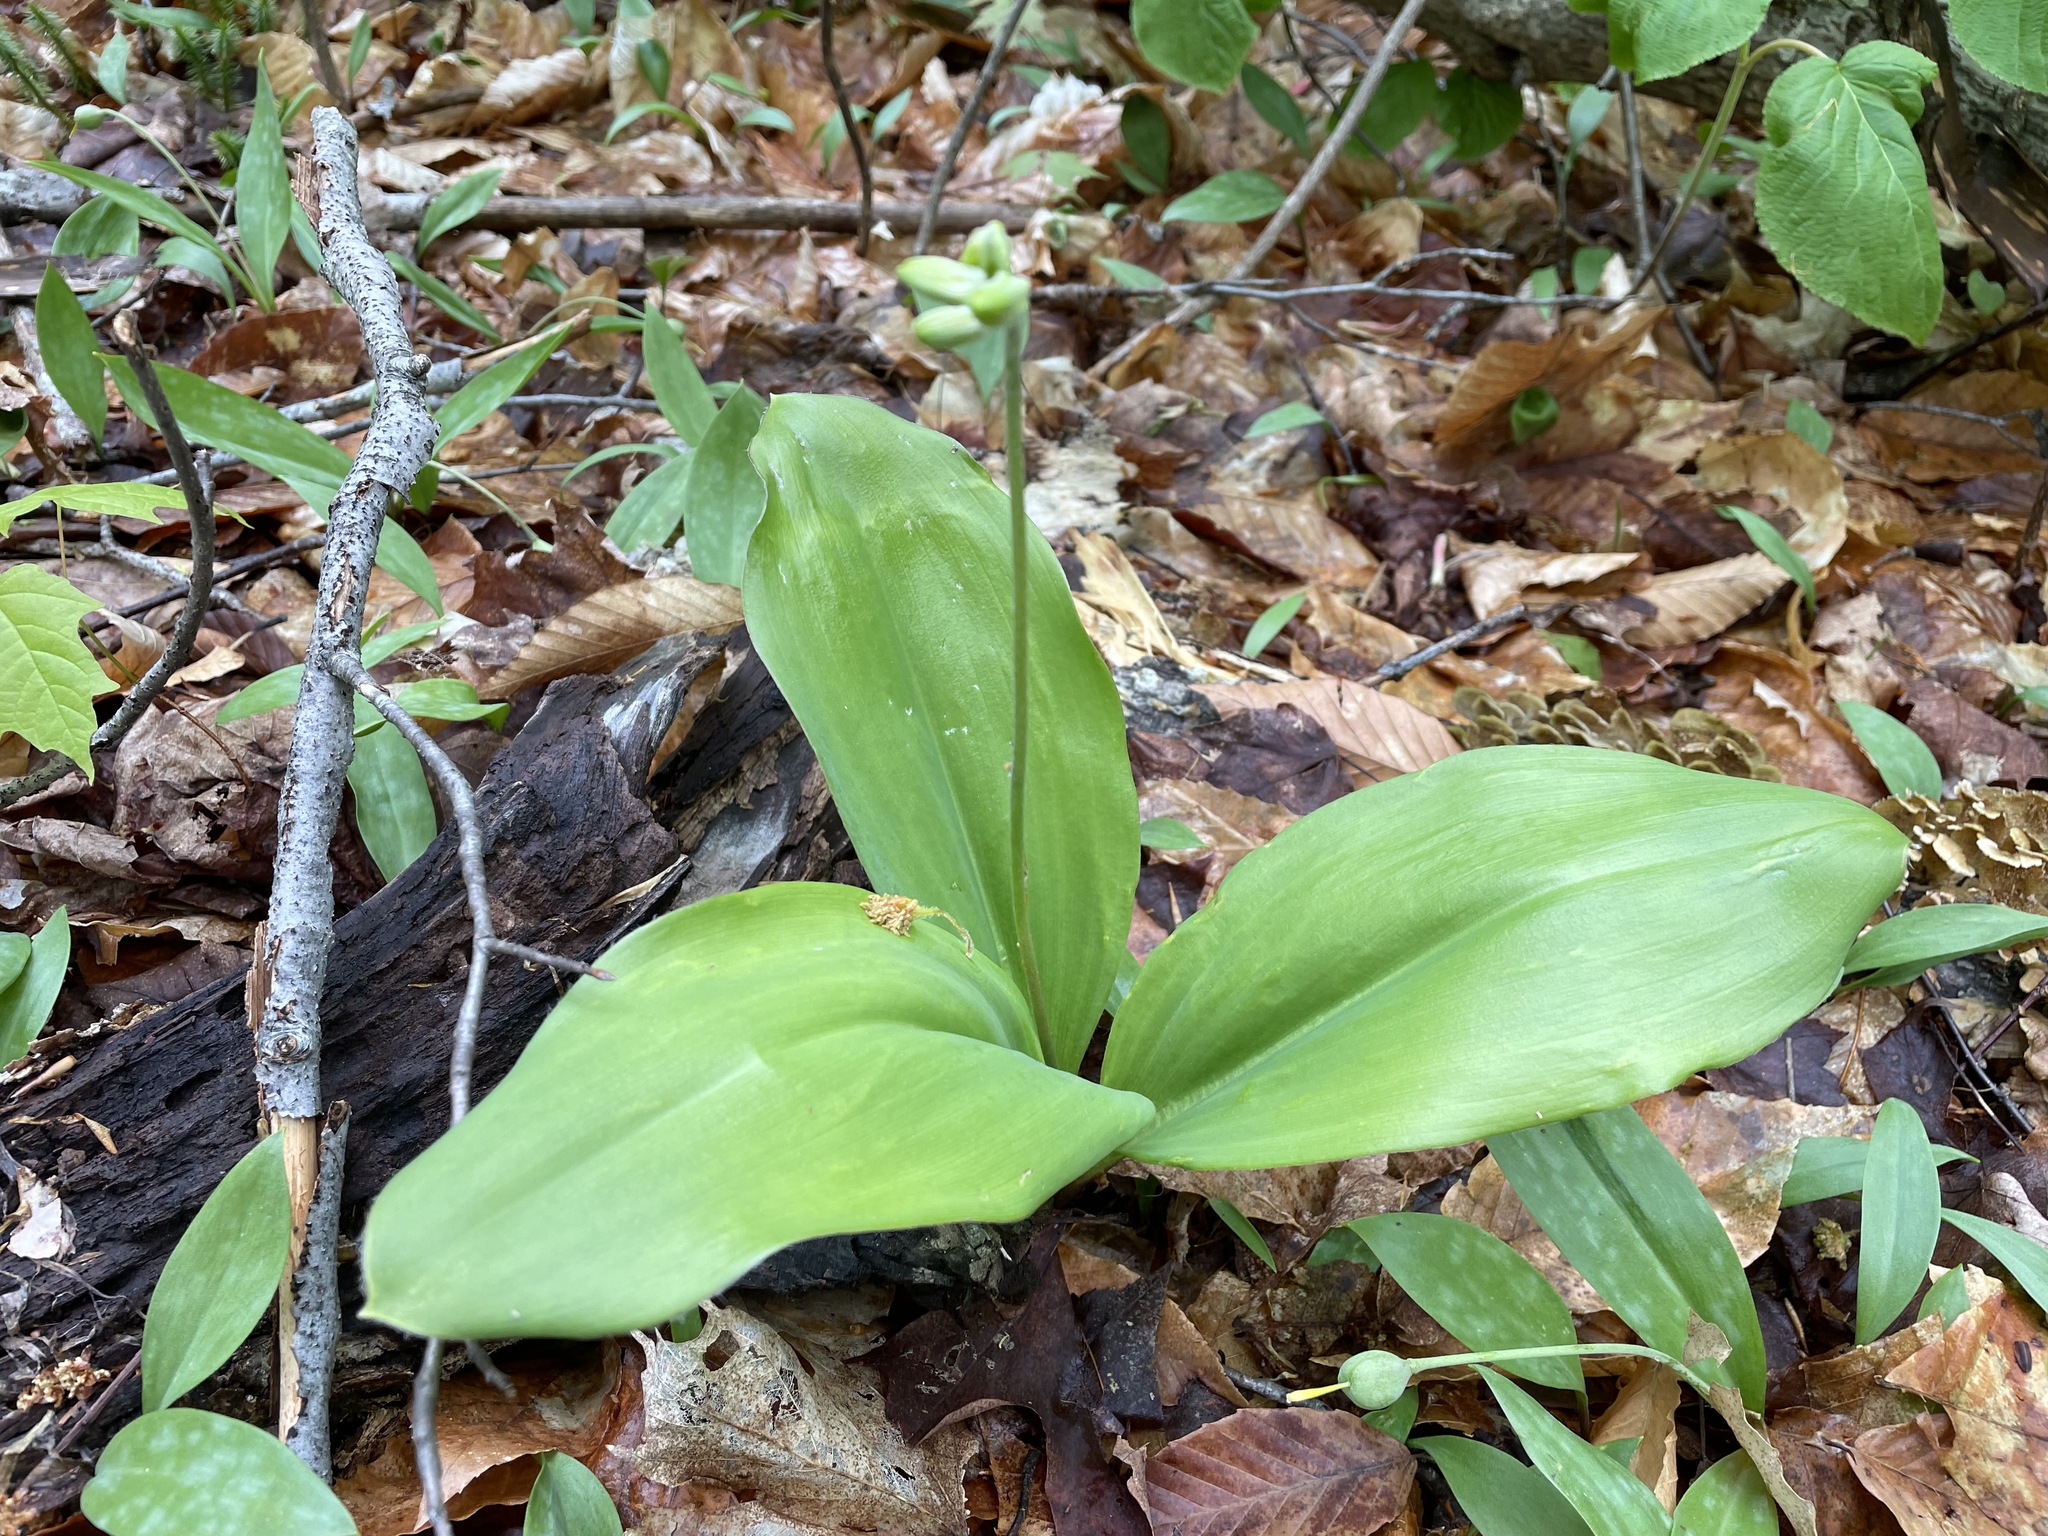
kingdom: Plantae
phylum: Tracheophyta
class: Liliopsida
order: Liliales
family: Liliaceae
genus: Clintonia
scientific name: Clintonia borealis
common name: Yellow clintonia
